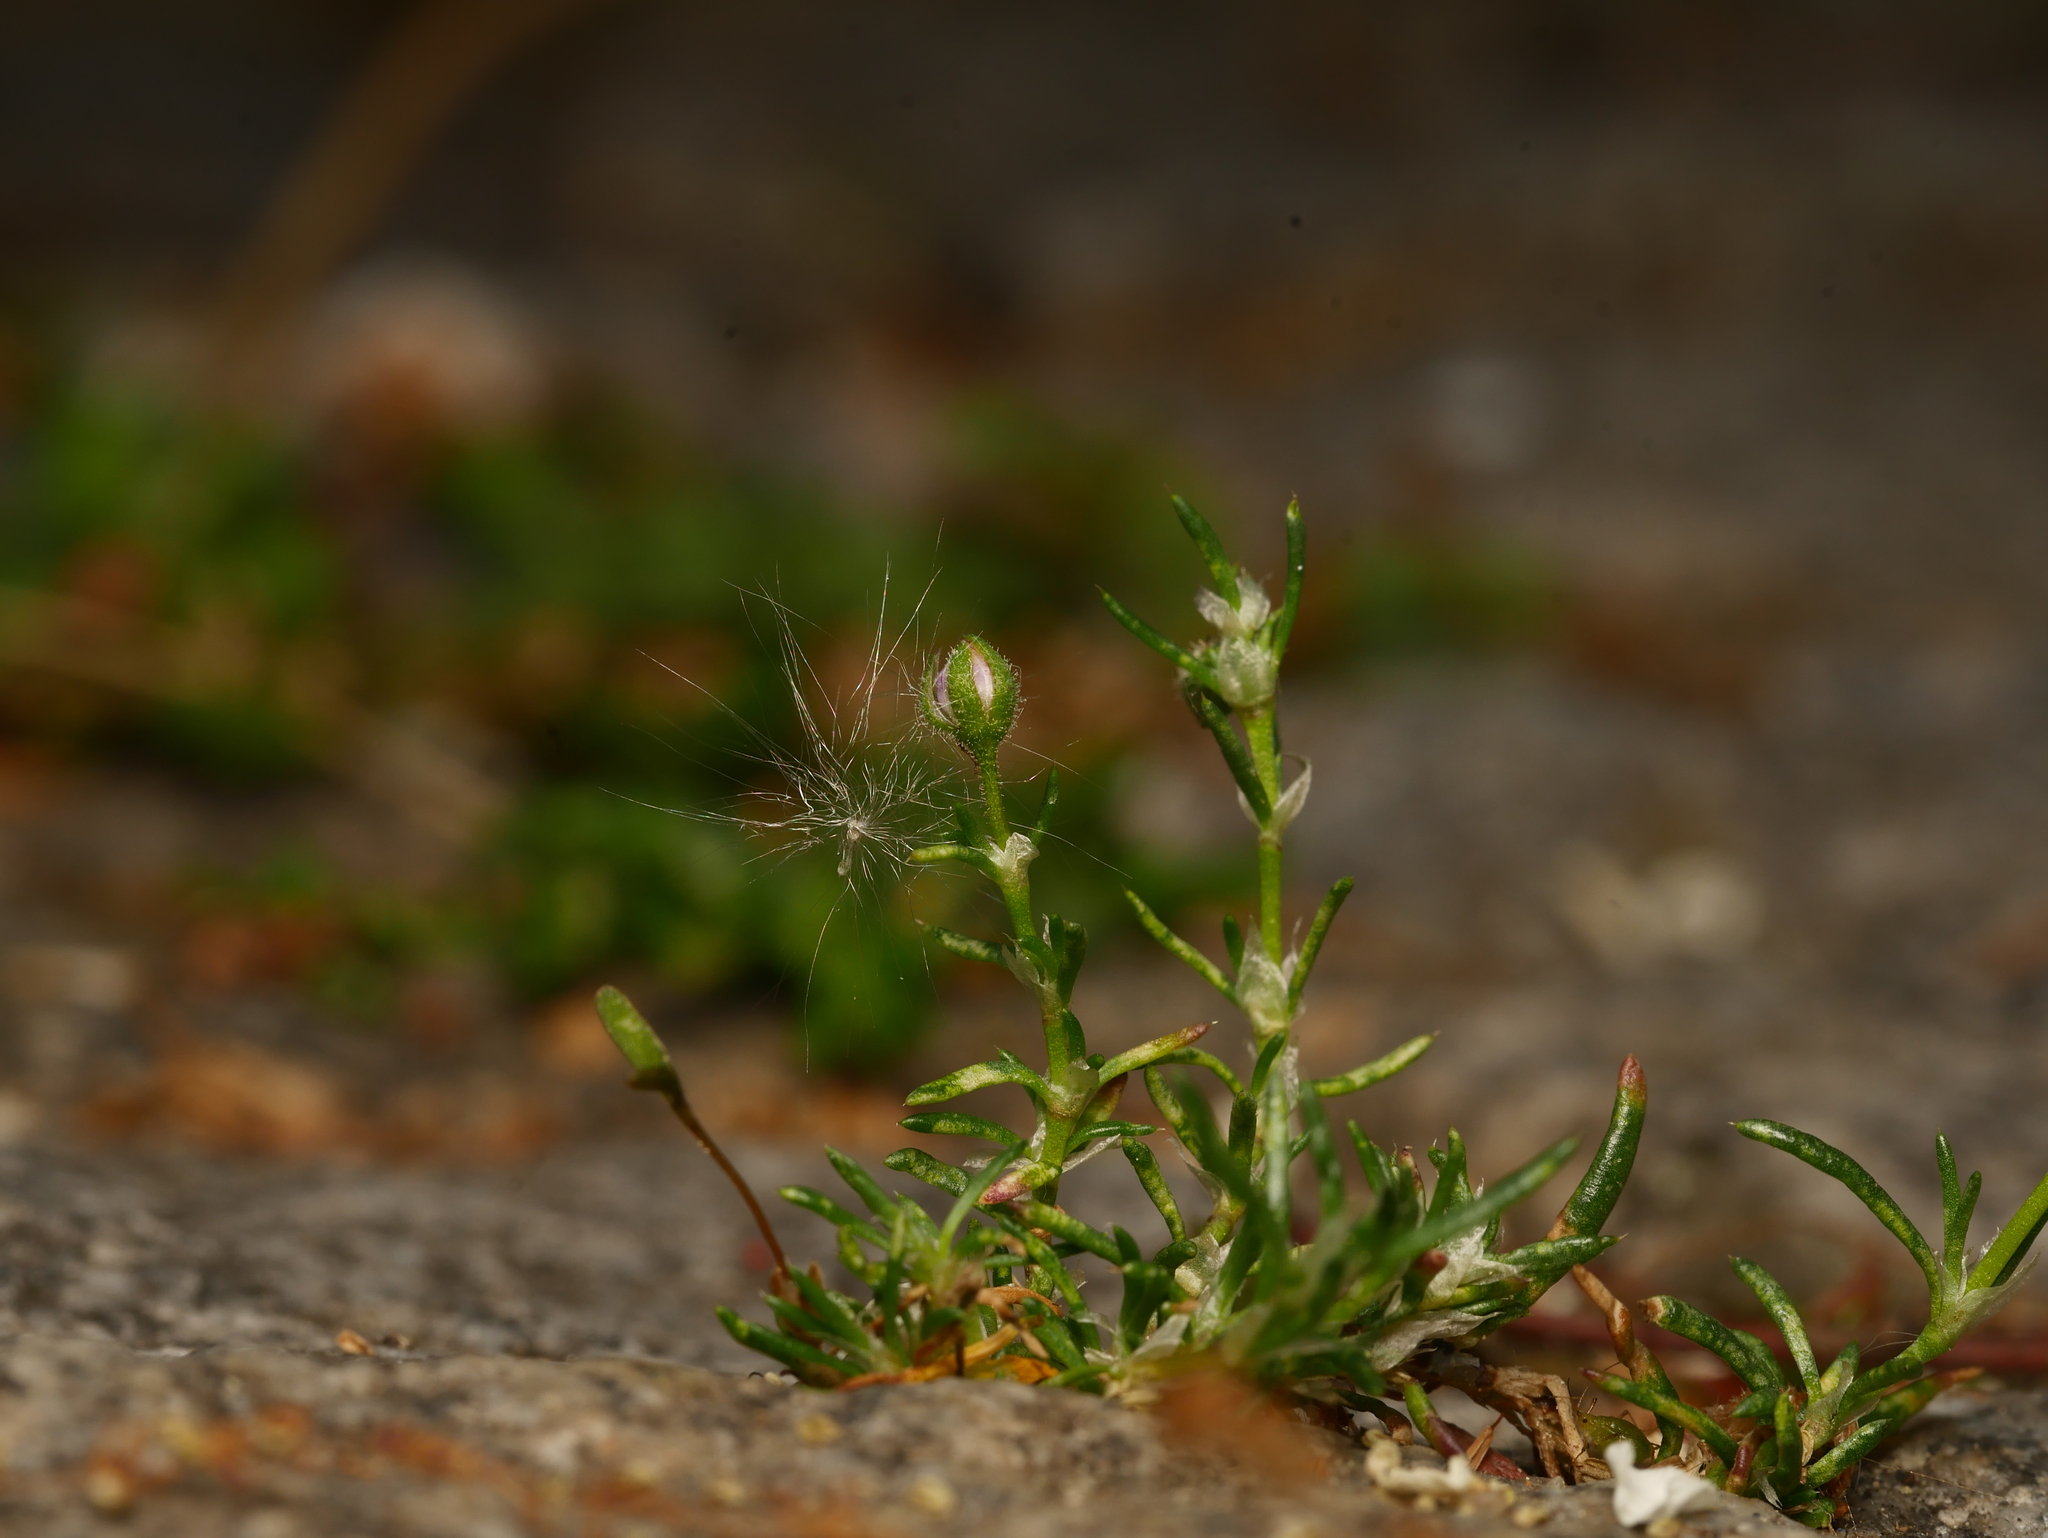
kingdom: Plantae
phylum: Tracheophyta
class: Magnoliopsida
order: Caryophyllales
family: Caryophyllaceae
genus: Spergularia
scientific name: Spergularia rubra
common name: Red sand-spurrey
